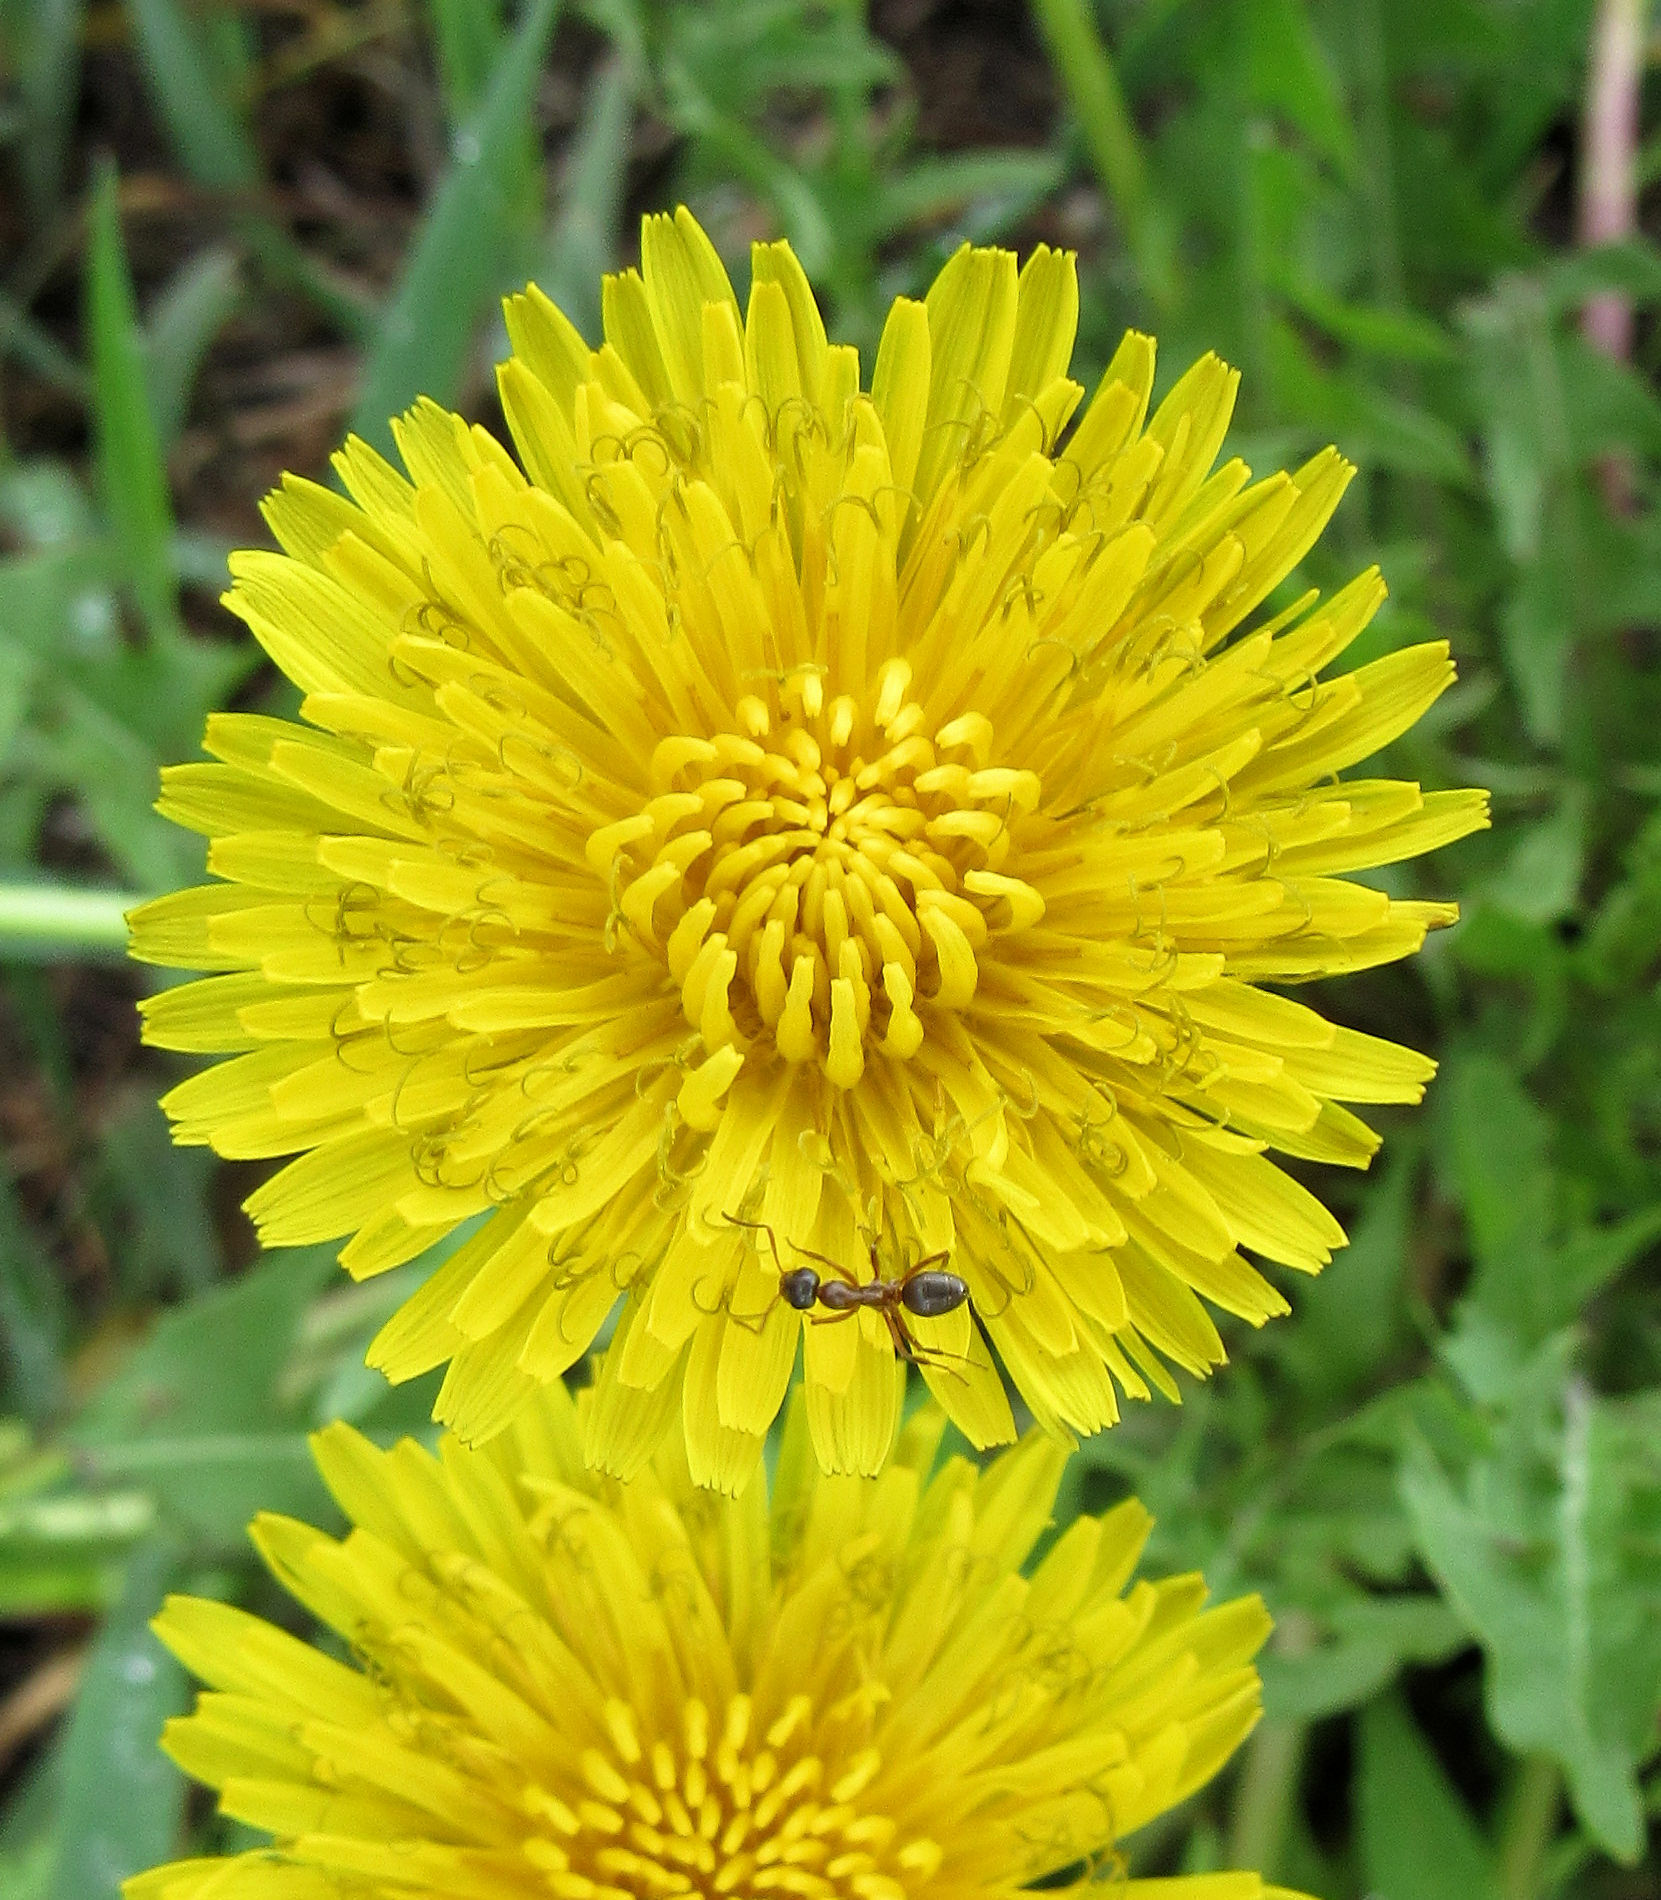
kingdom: Plantae
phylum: Tracheophyta
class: Magnoliopsida
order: Asterales
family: Asteraceae
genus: Taraxacum
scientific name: Taraxacum officinale
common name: Common dandelion
